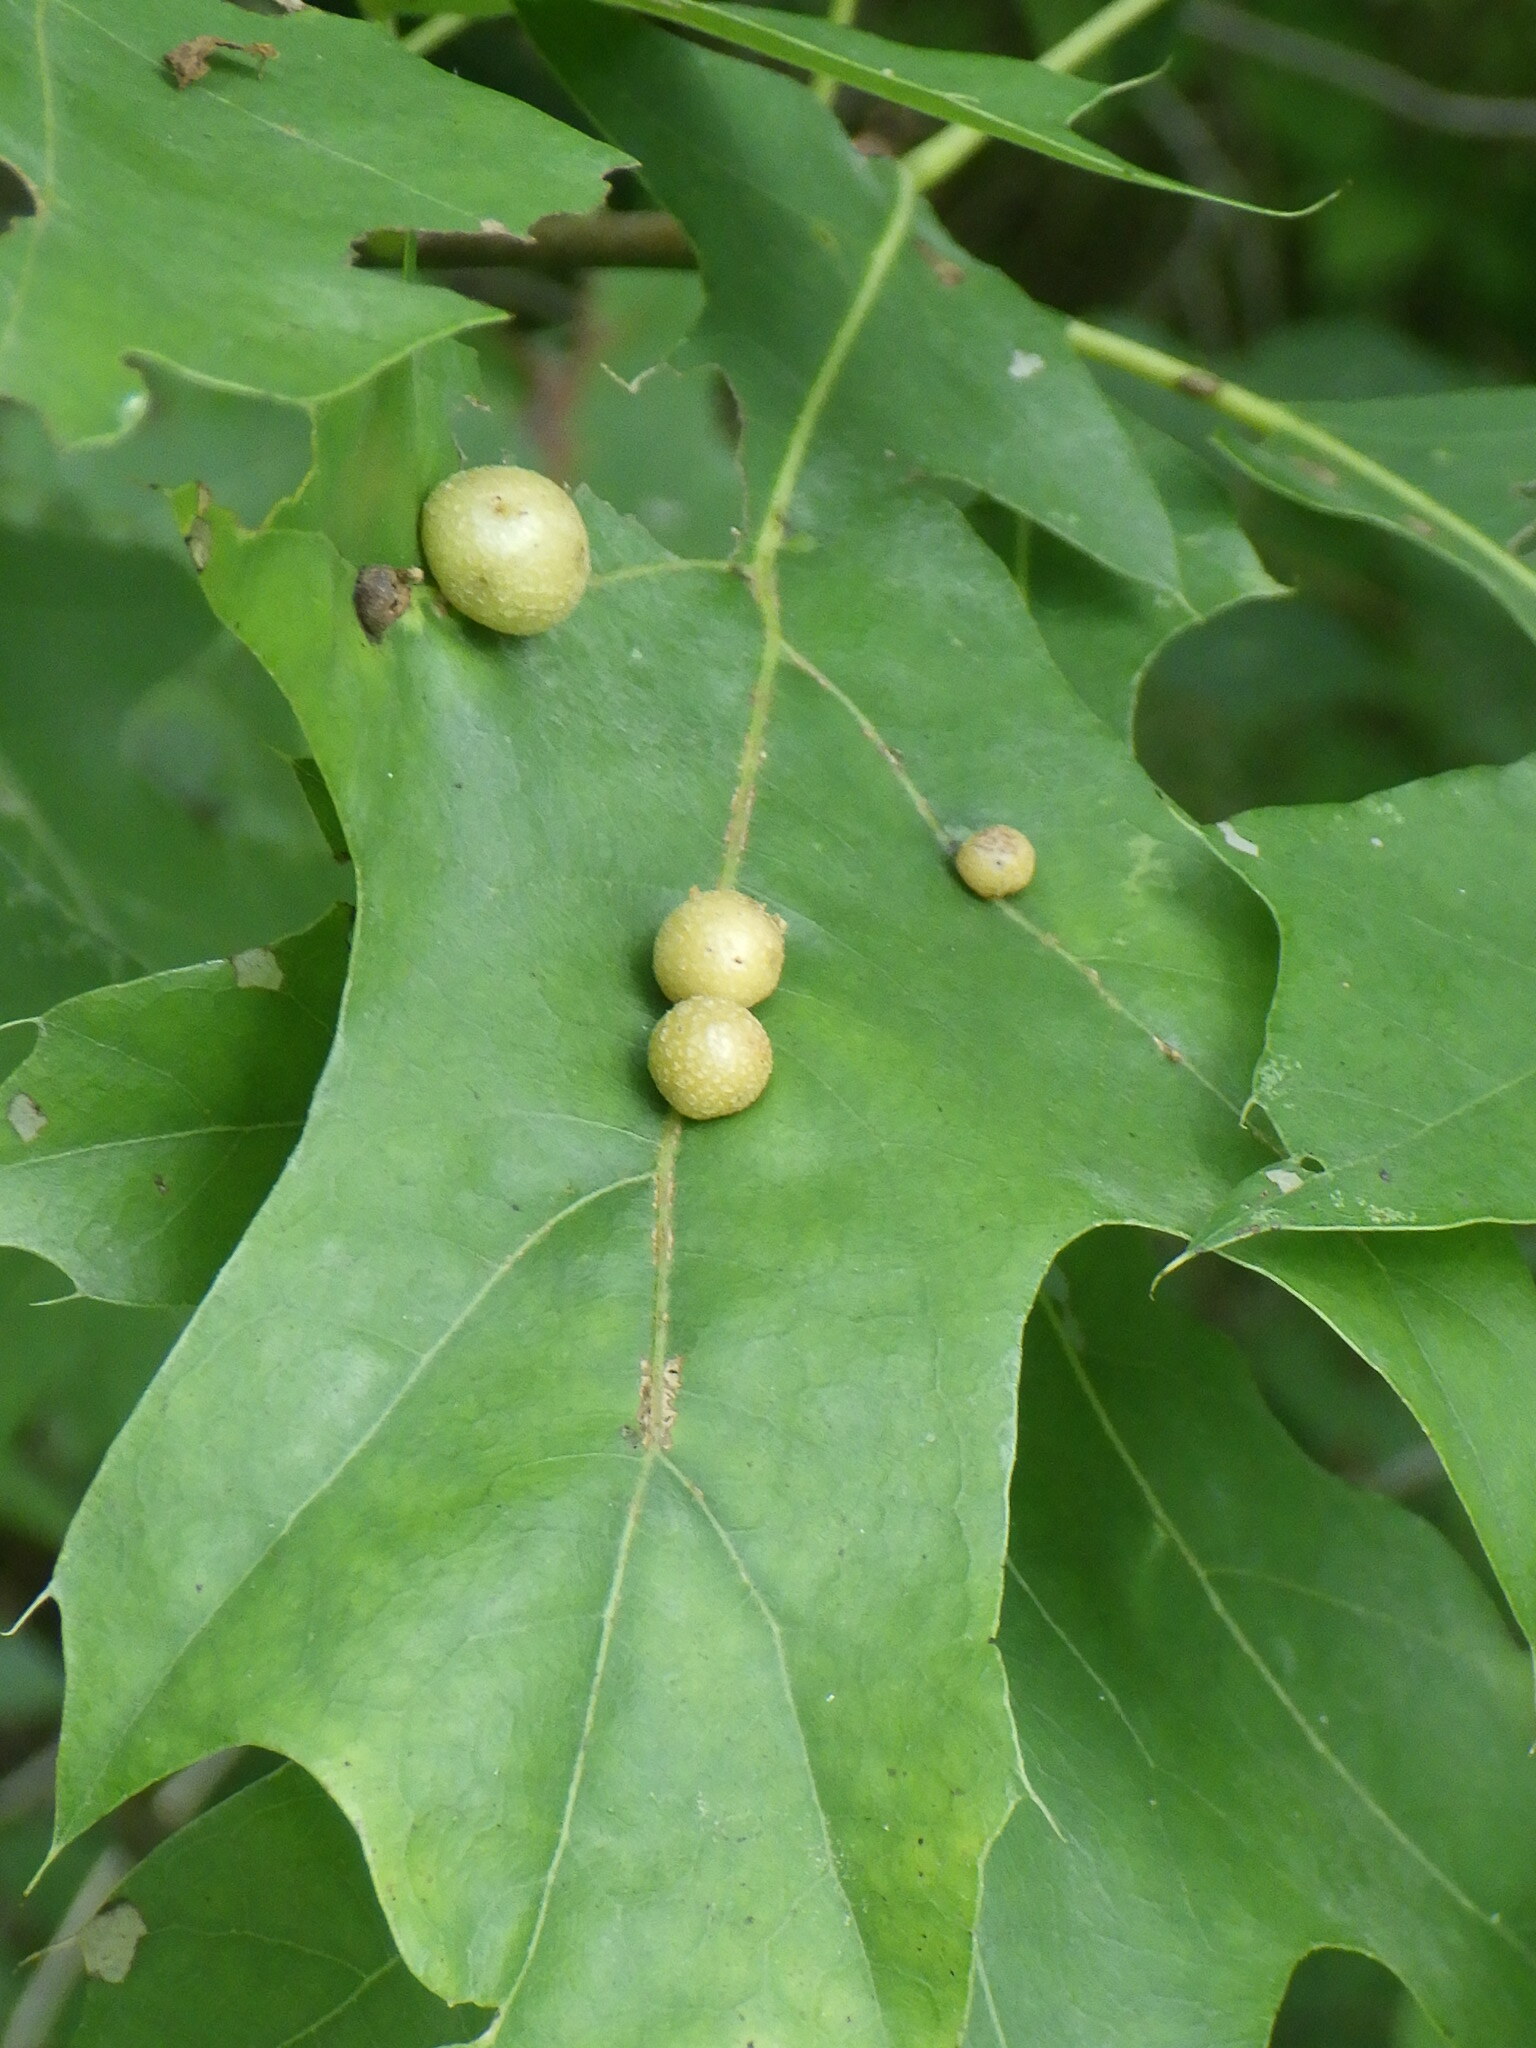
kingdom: Animalia
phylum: Arthropoda
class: Insecta
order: Diptera
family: Cecidomyiidae
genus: Polystepha
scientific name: Polystepha pilulae
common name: Oak leaf gall midge
